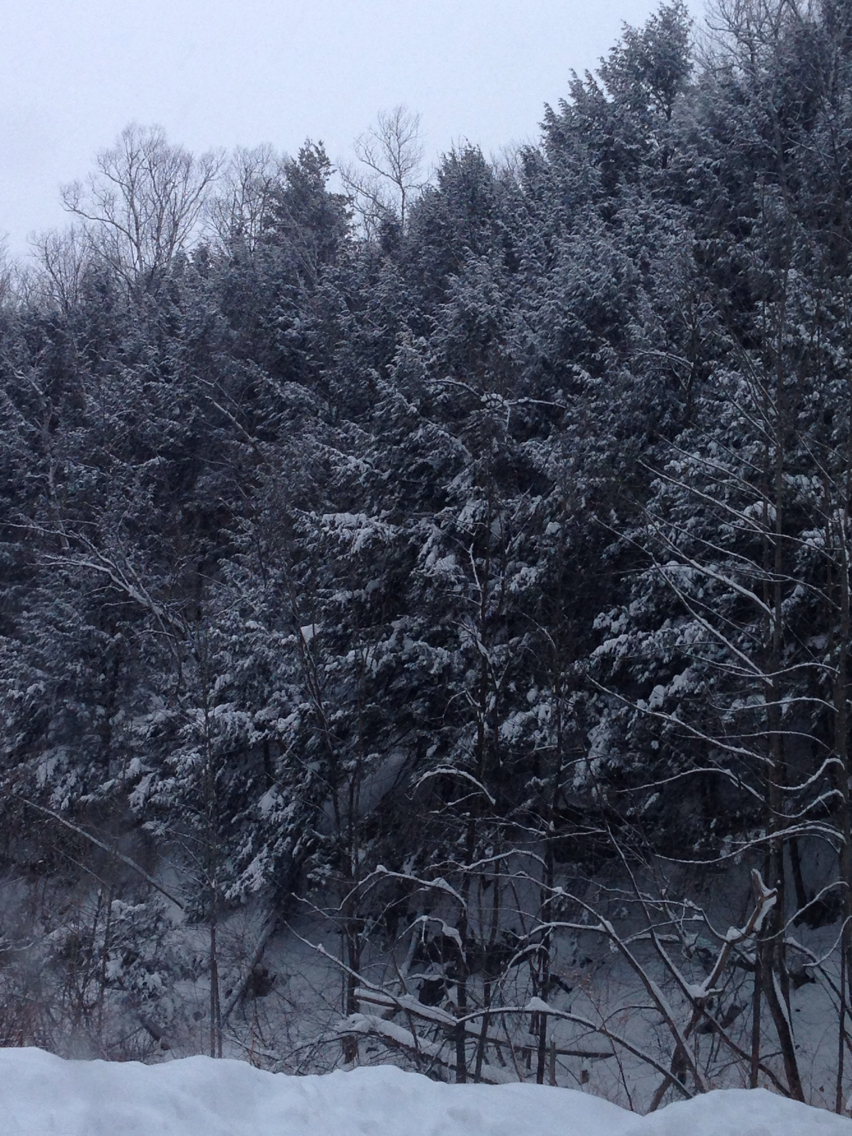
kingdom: Plantae
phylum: Tracheophyta
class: Pinopsida
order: Pinales
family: Pinaceae
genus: Tsuga
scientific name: Tsuga canadensis
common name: Eastern hemlock
